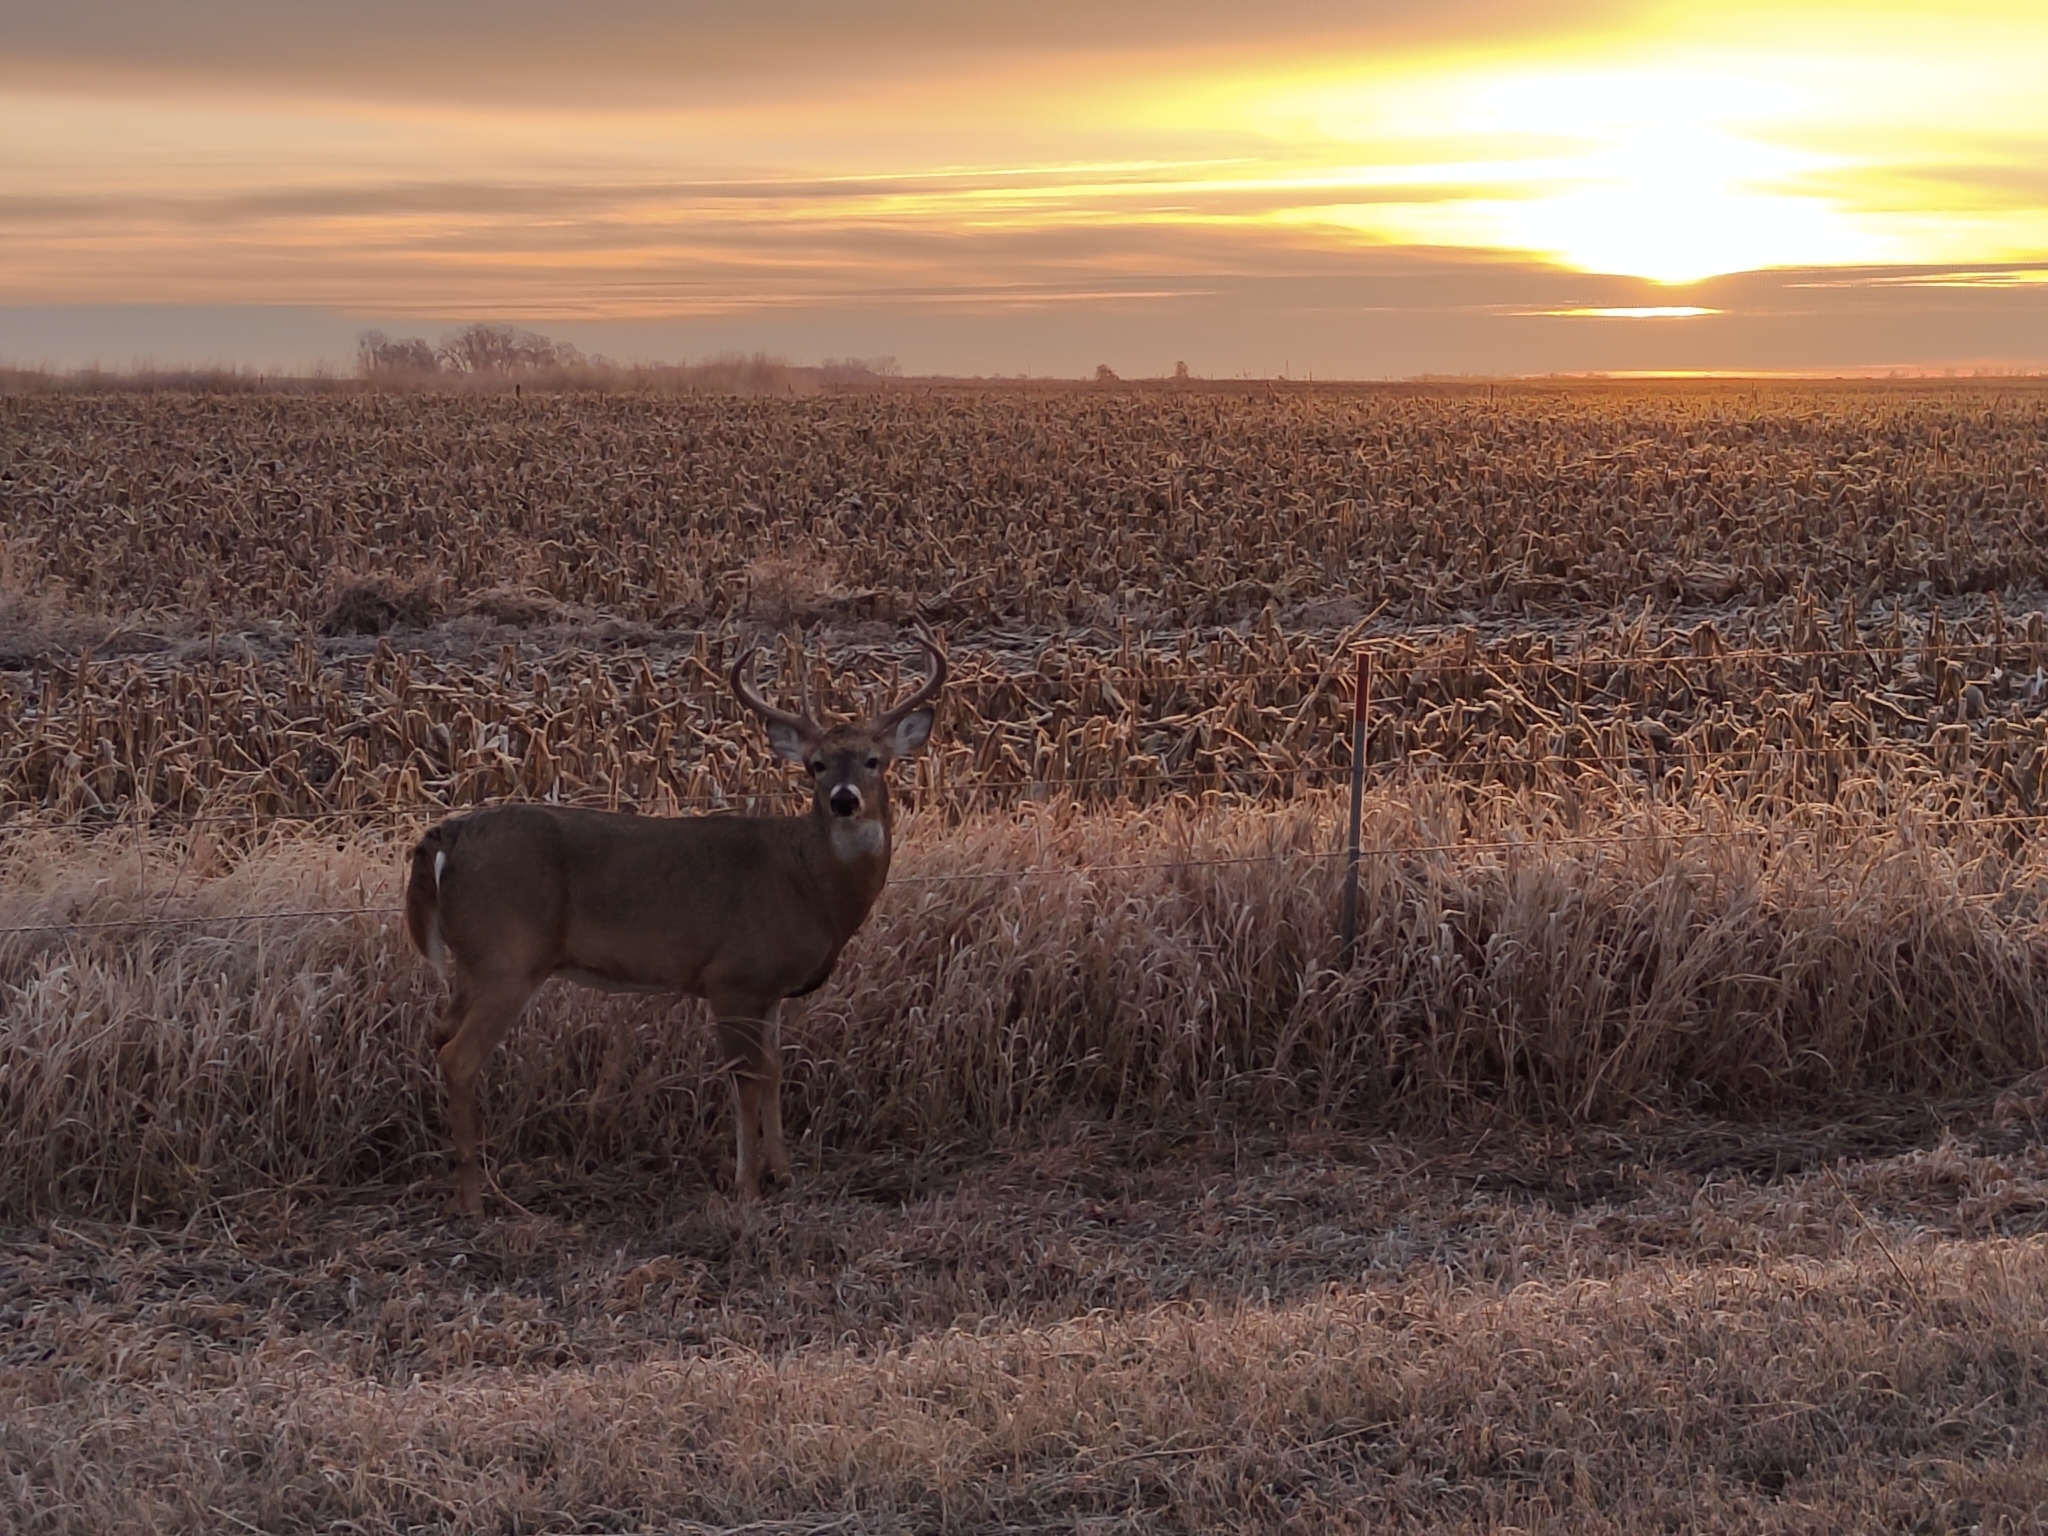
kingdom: Animalia
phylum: Chordata
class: Mammalia
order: Artiodactyla
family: Cervidae
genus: Odocoileus
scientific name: Odocoileus virginianus
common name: White-tailed deer
